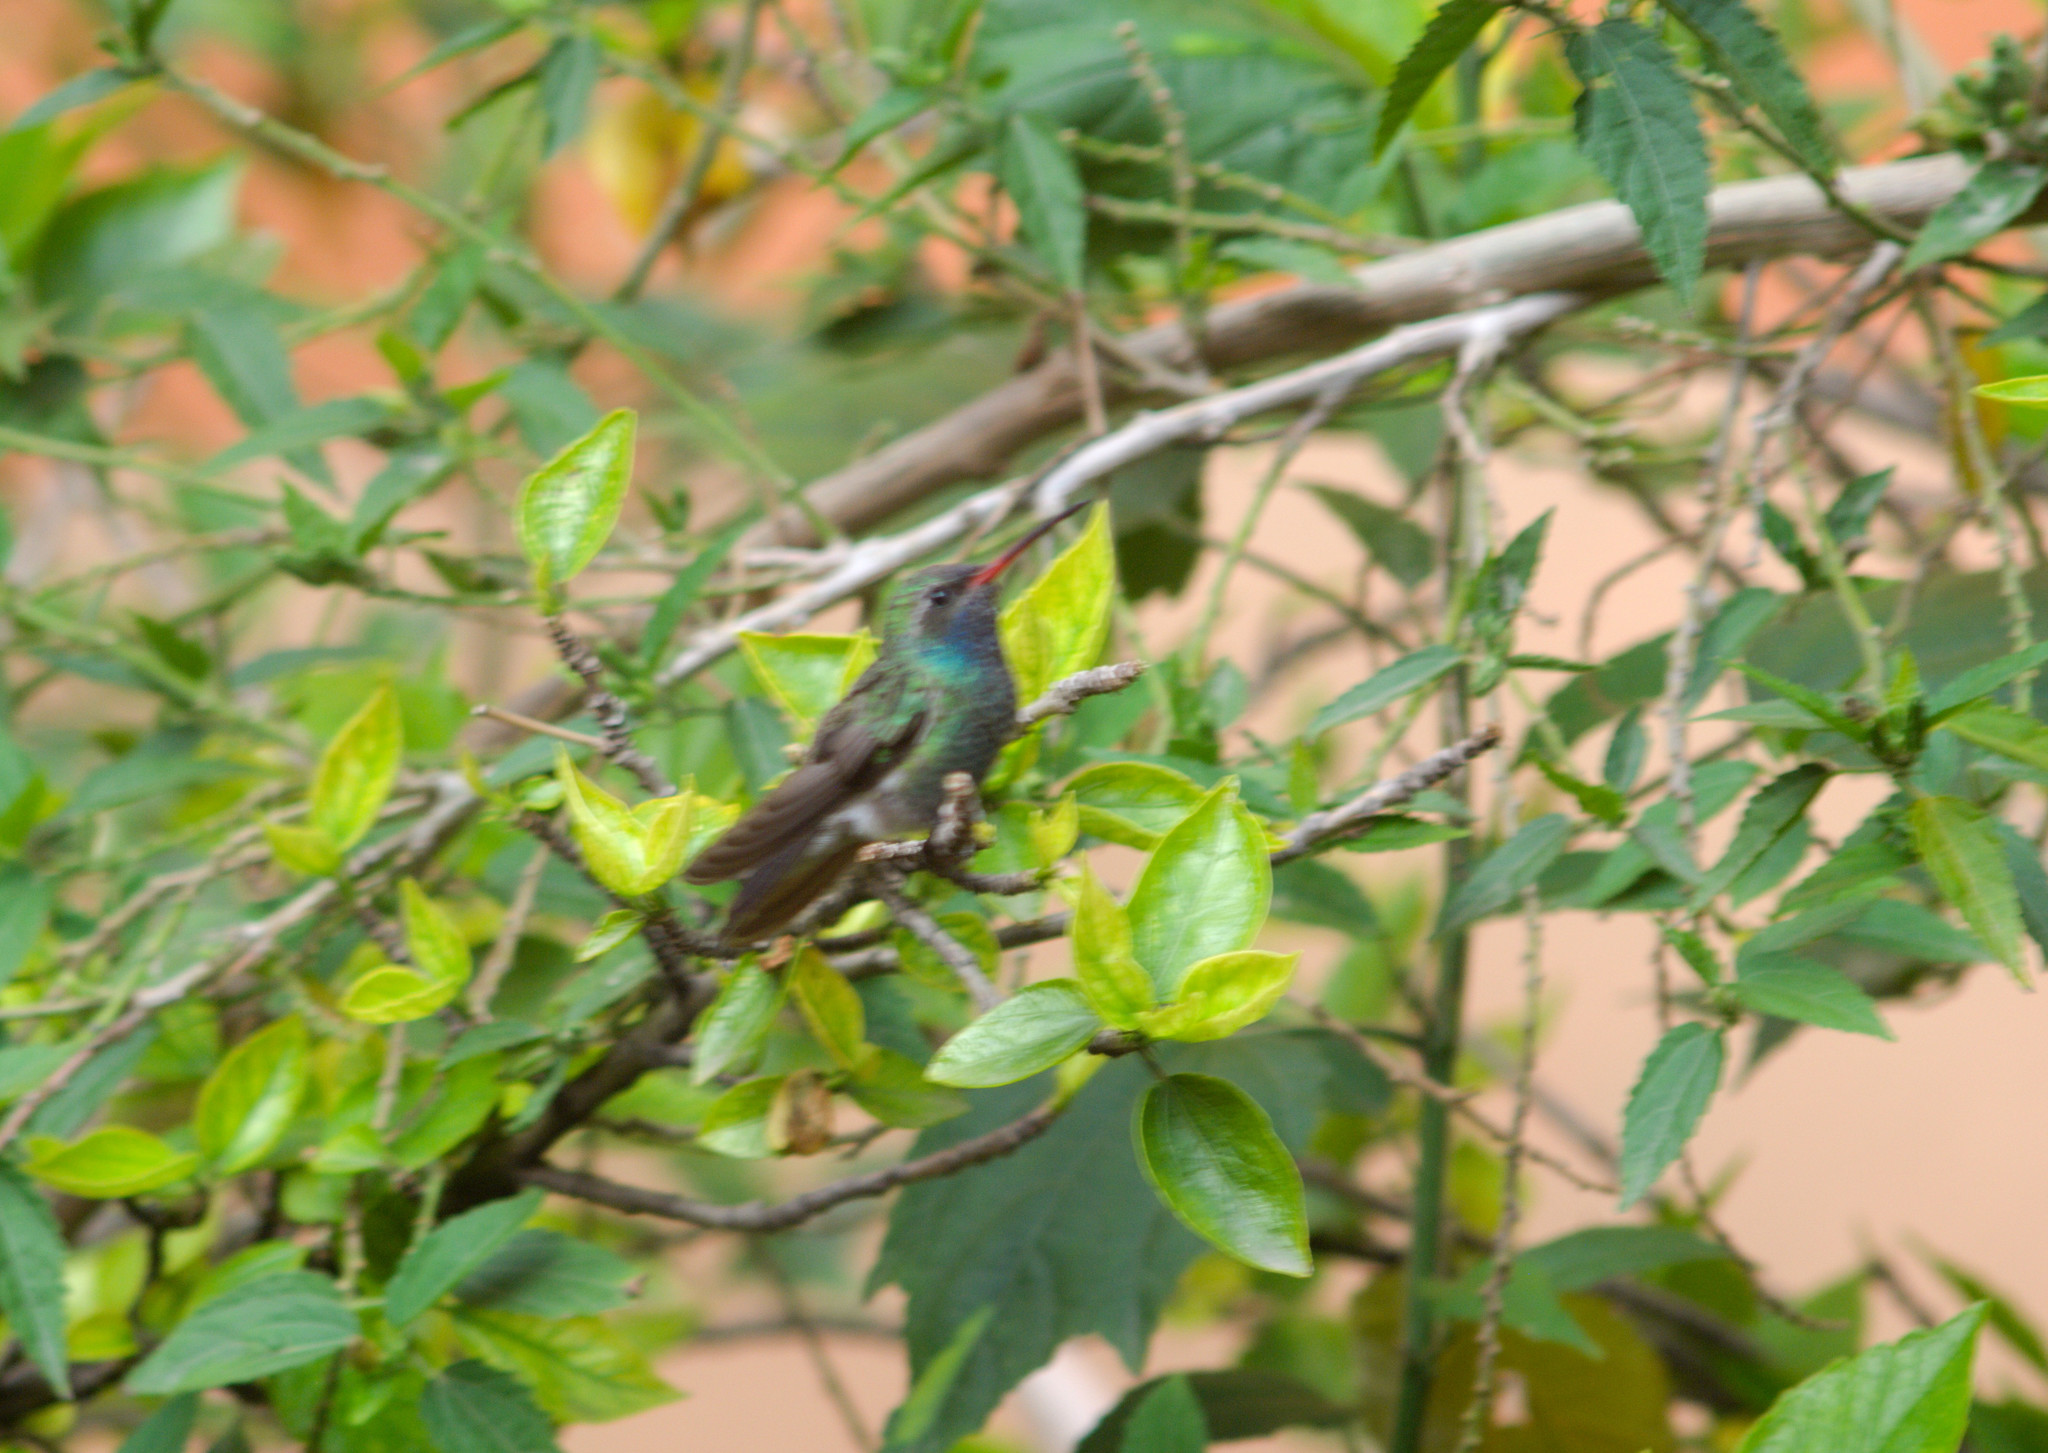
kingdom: Animalia
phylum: Chordata
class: Aves
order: Apodiformes
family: Trochilidae
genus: Cynanthus
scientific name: Cynanthus latirostris
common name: Broad-billed hummingbird
